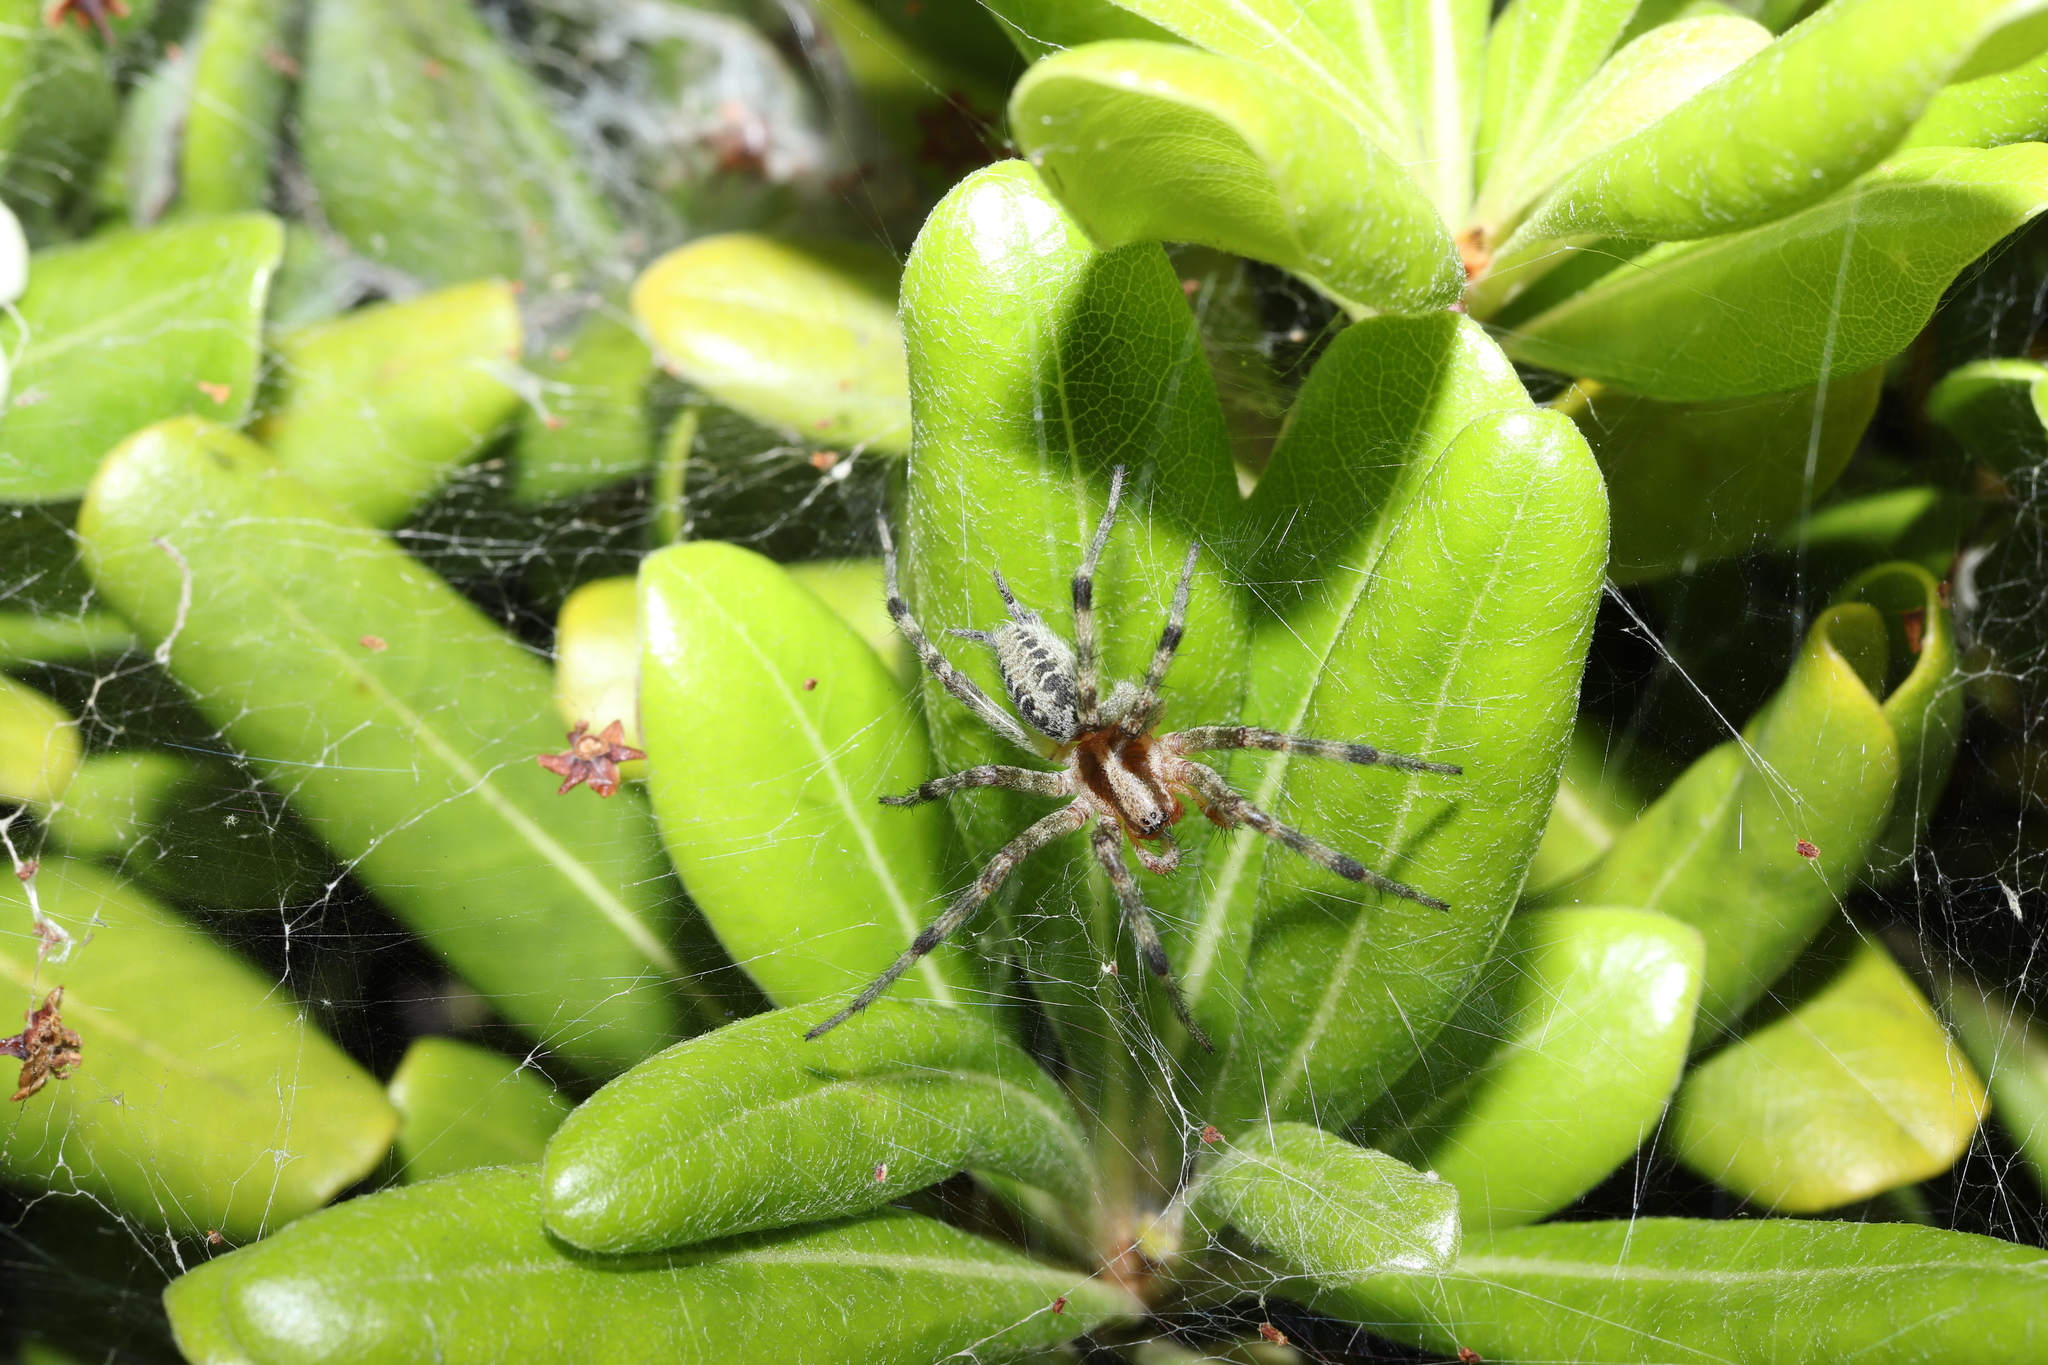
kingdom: Animalia
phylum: Arthropoda
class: Arachnida
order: Araneae
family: Agelenidae
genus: Agelena
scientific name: Agelena silvatica
